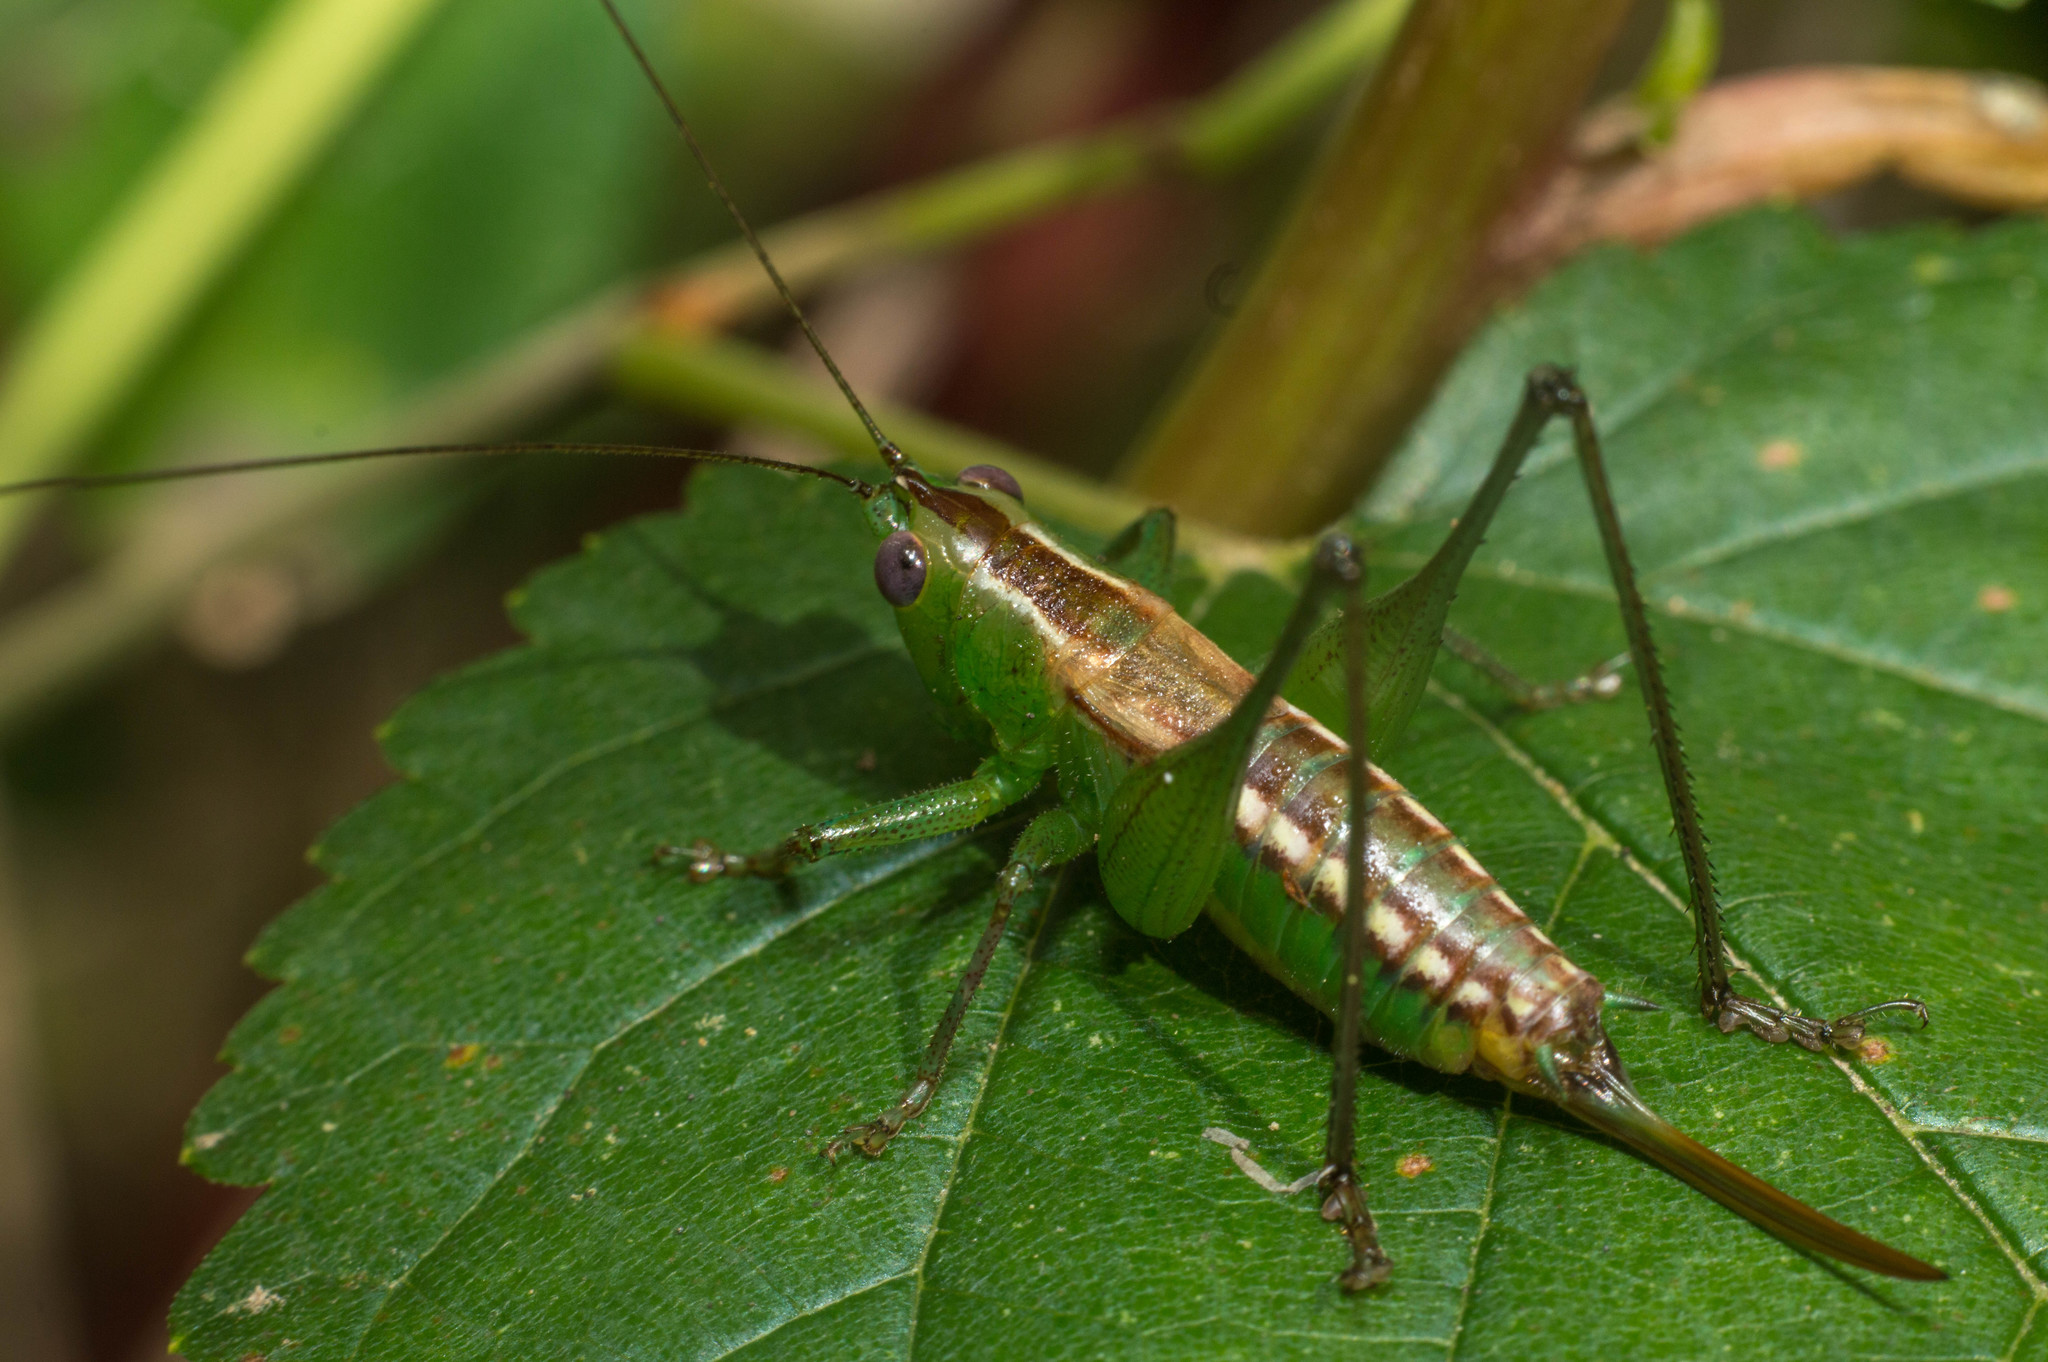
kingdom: Animalia
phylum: Arthropoda
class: Insecta
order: Orthoptera
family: Tettigoniidae
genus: Conocephalus
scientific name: Conocephalus ochrotelus
